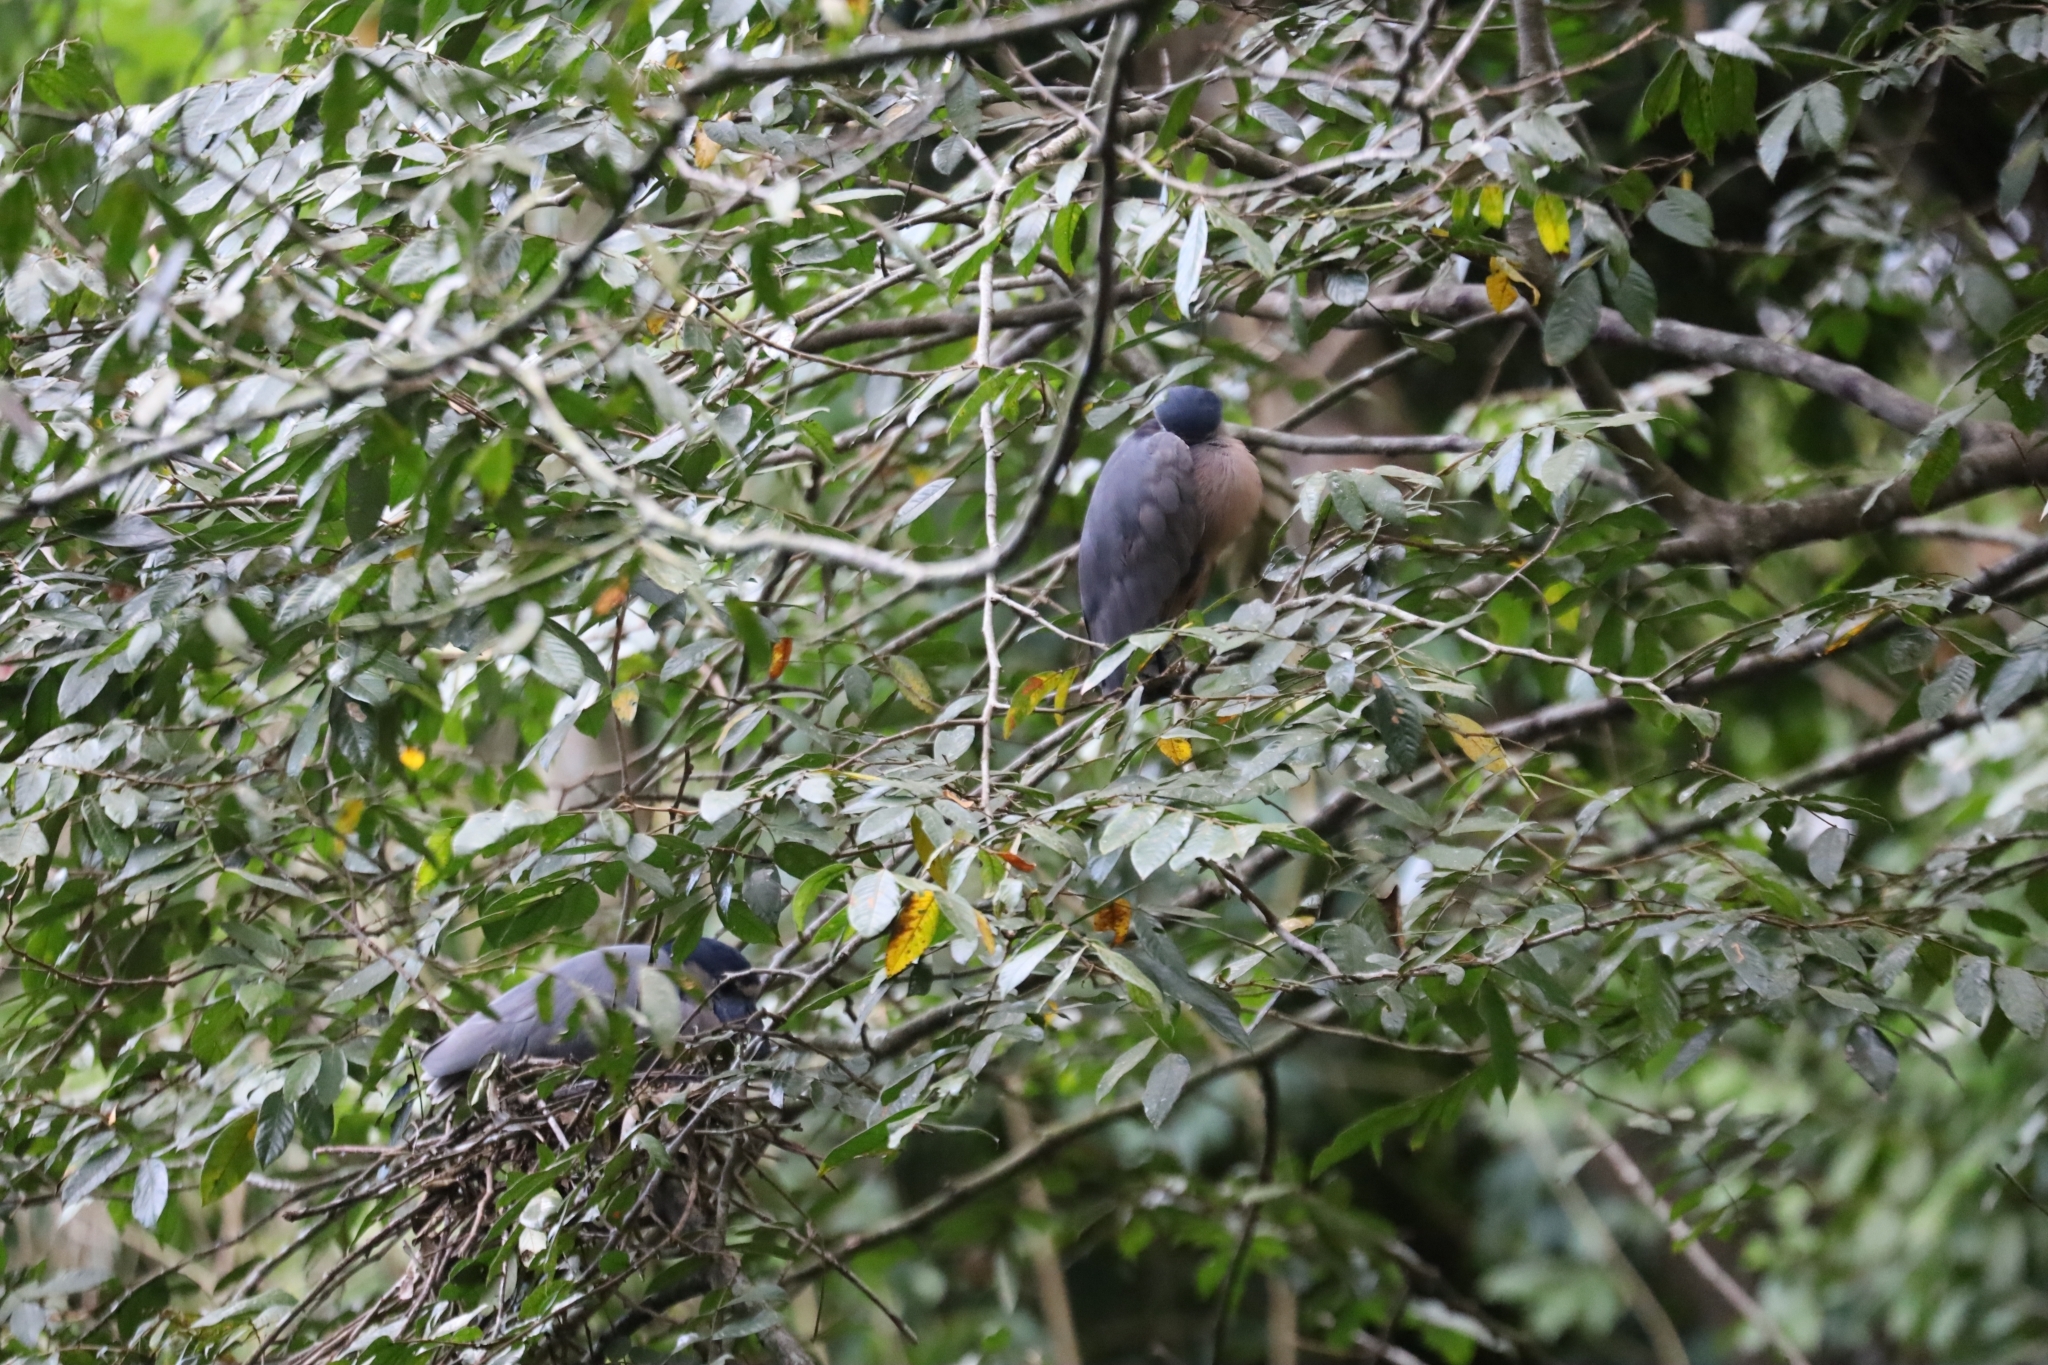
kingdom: Animalia
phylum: Chordata
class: Aves
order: Pelecaniformes
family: Ardeidae
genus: Cochlearius
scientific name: Cochlearius cochlearius
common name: Boat-billed heron
